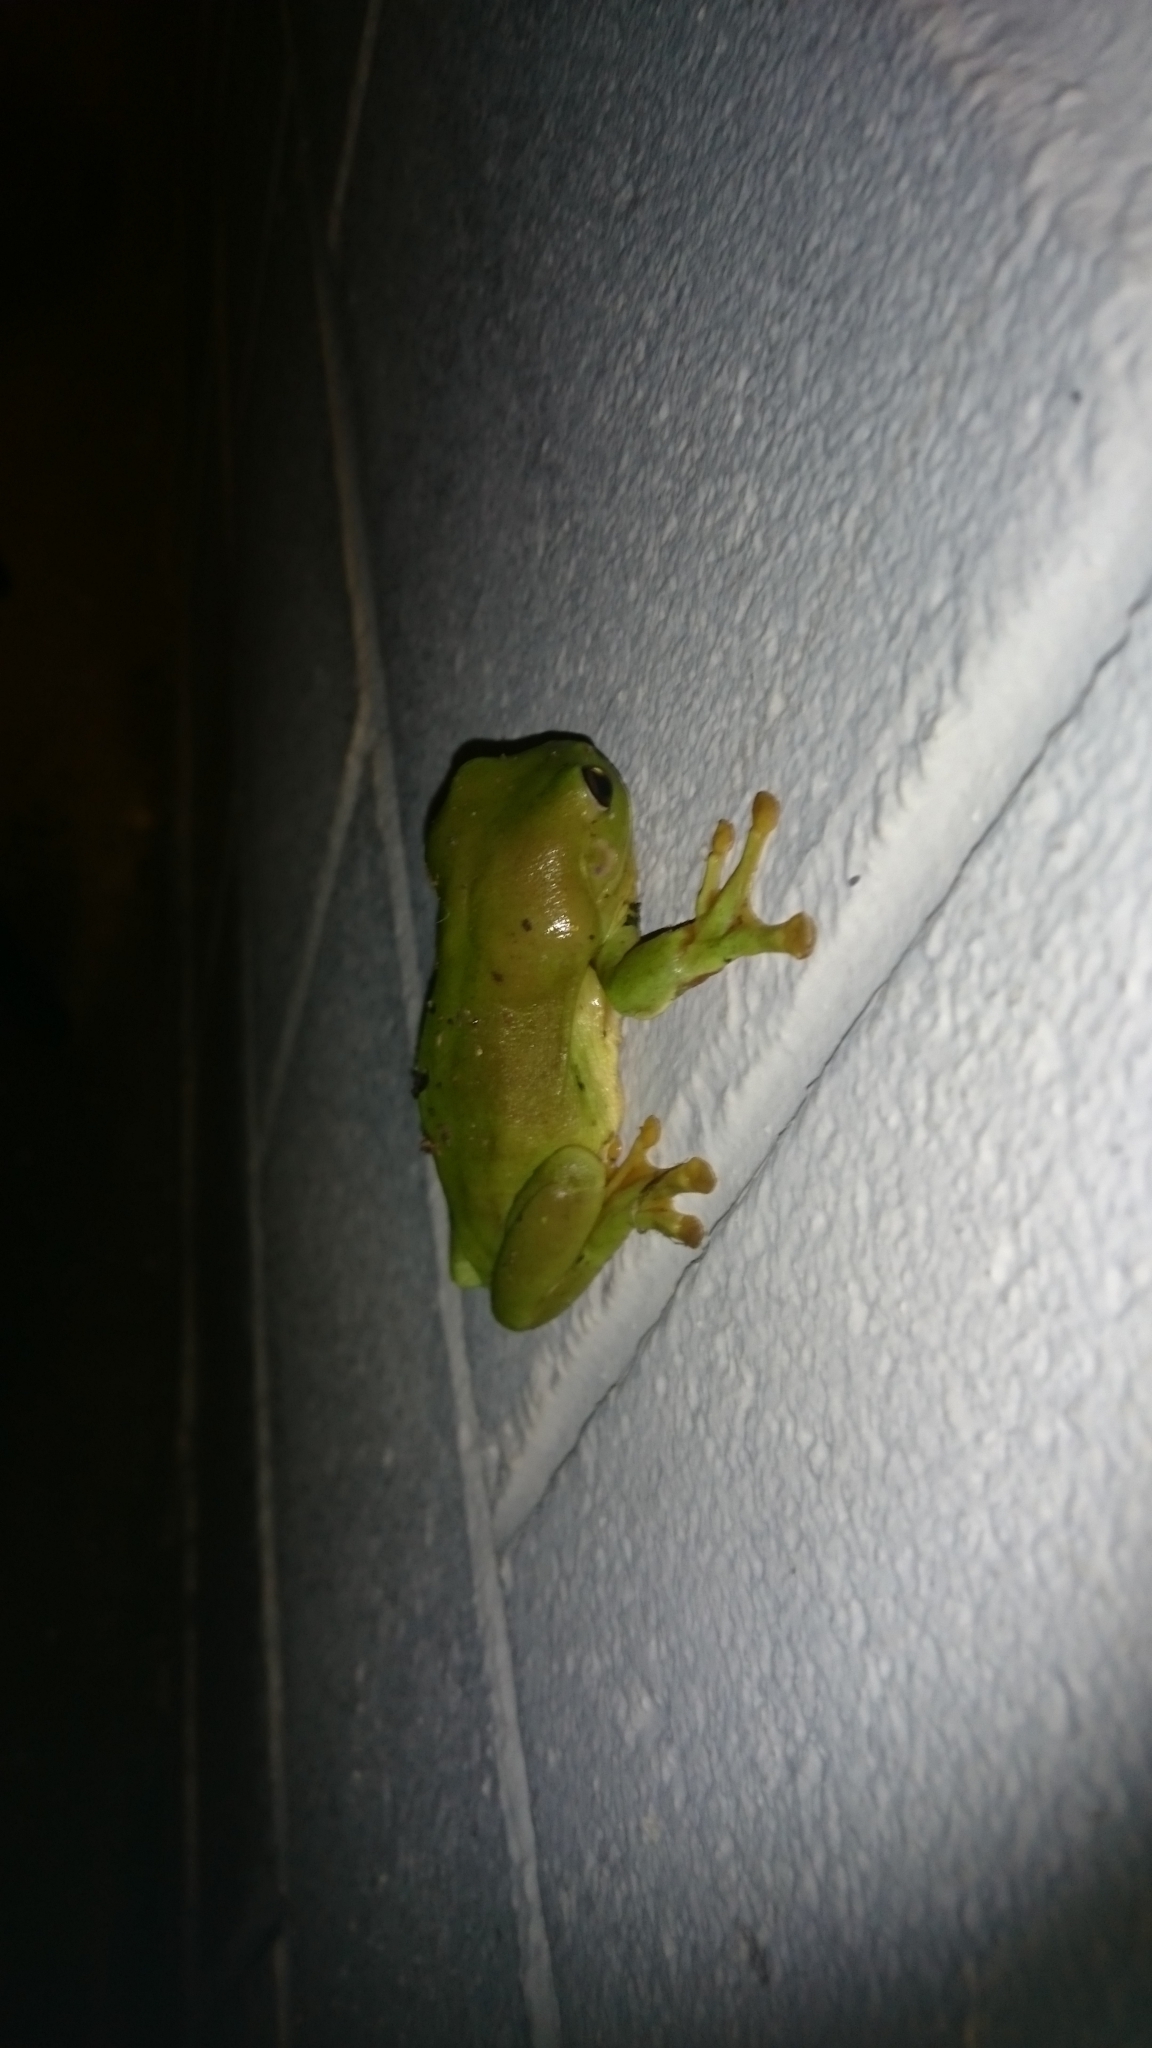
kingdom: Animalia
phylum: Chordata
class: Amphibia
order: Anura
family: Pelodryadidae
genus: Ranoidea
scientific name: Ranoidea caerulea
